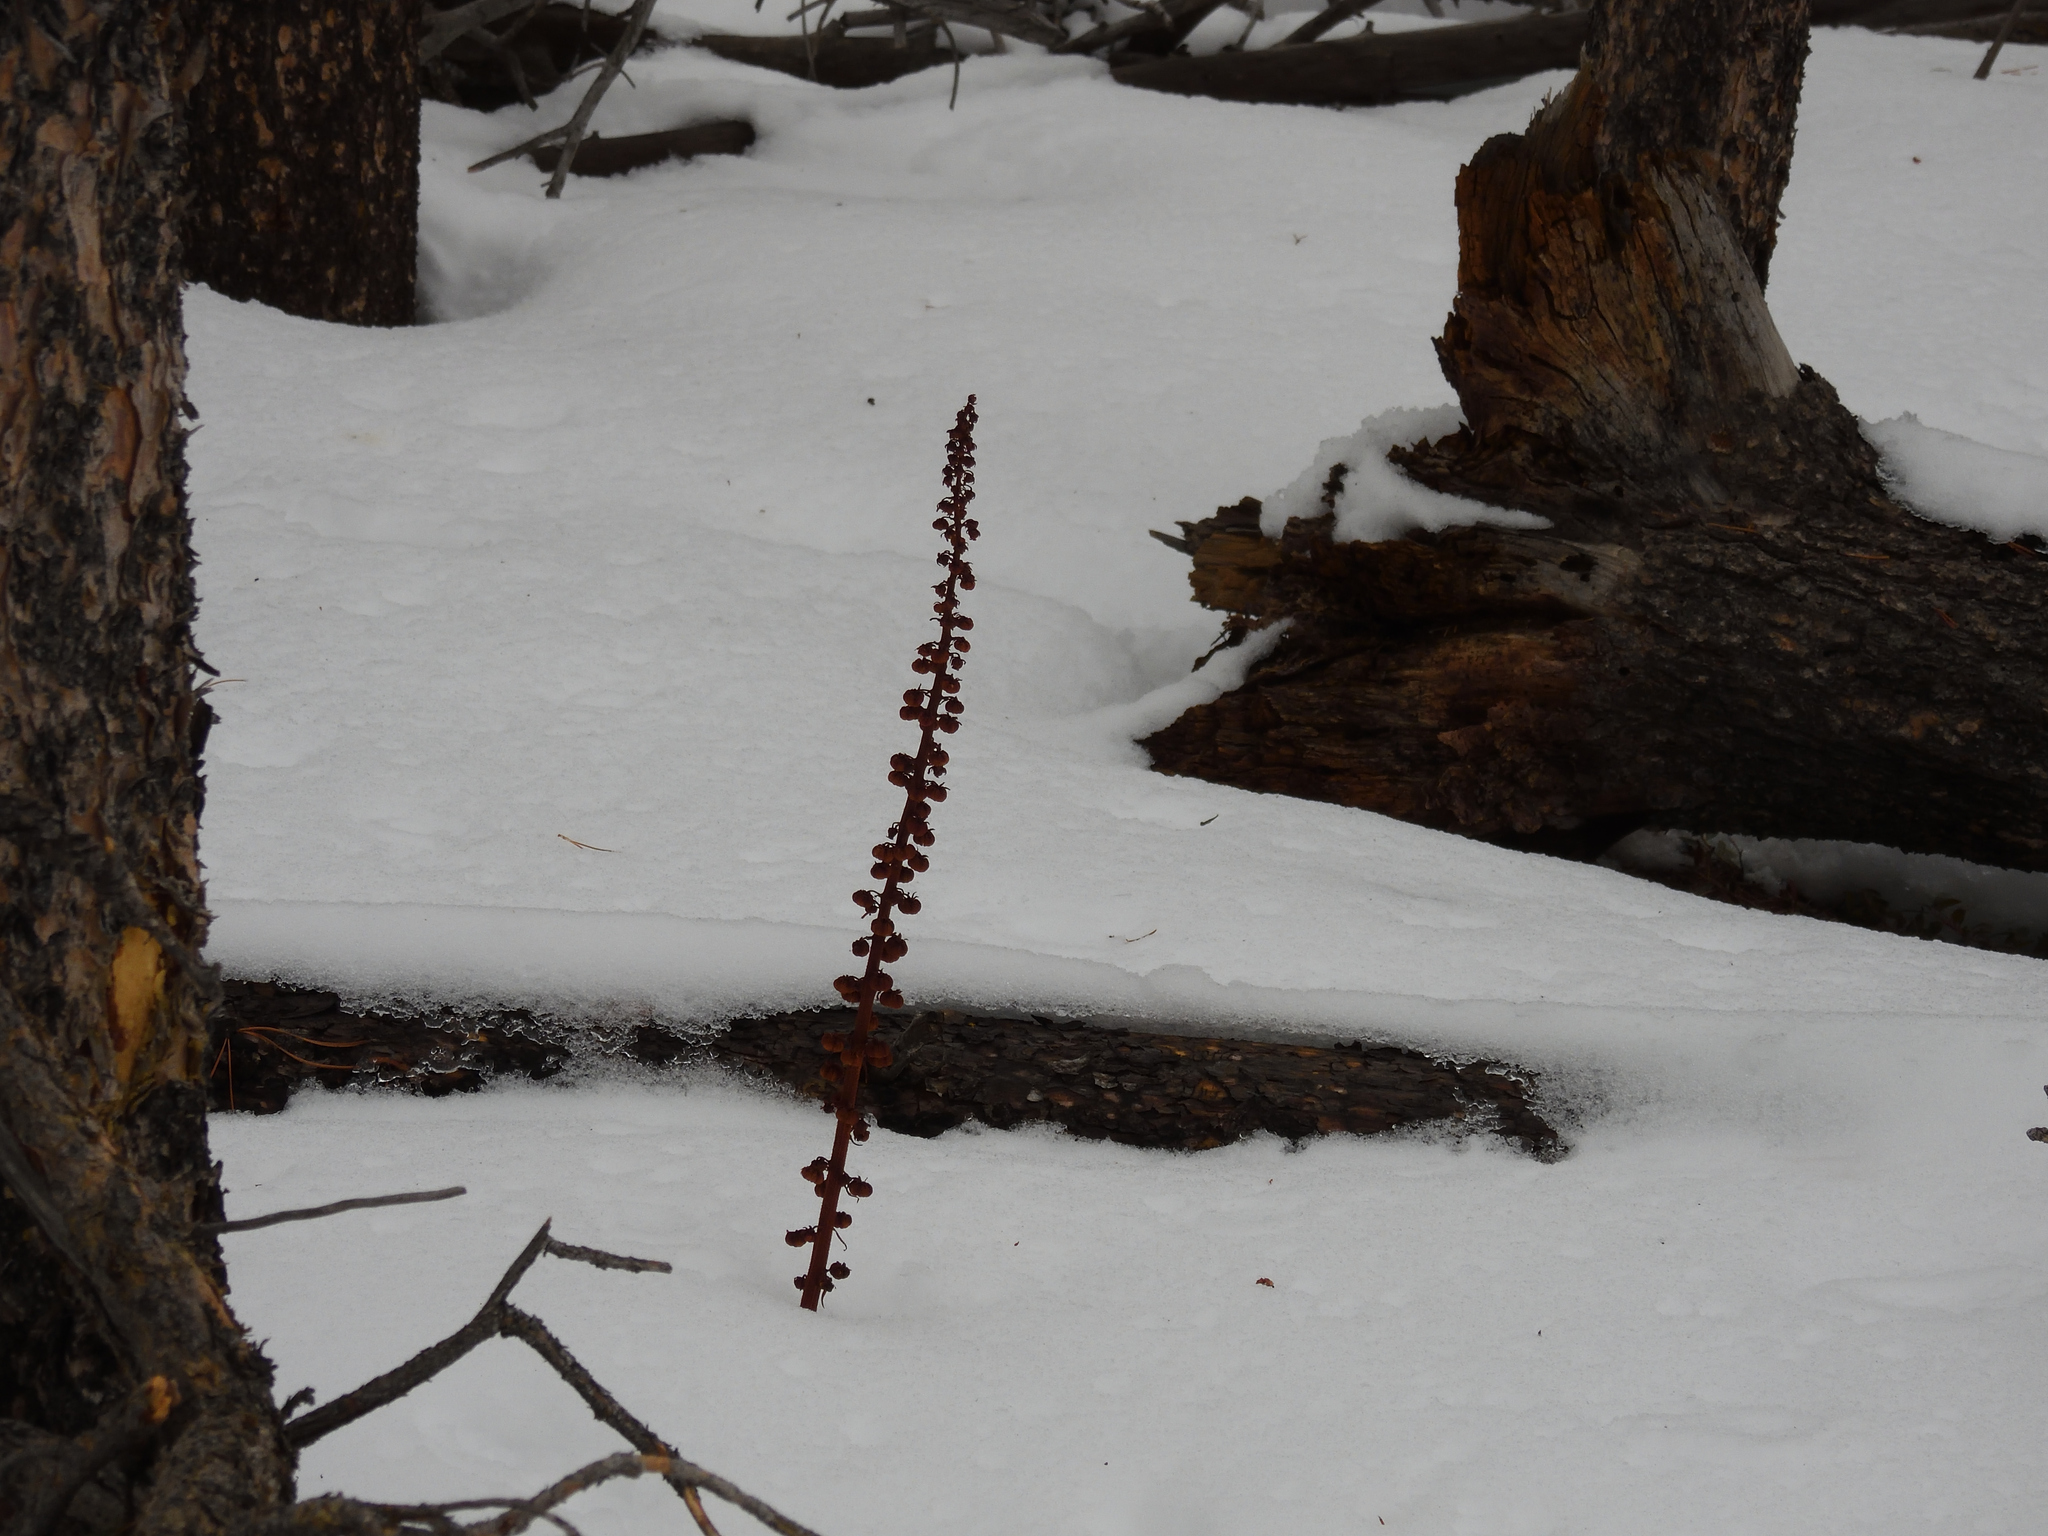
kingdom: Plantae
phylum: Tracheophyta
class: Magnoliopsida
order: Ericales
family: Ericaceae
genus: Pterospora
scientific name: Pterospora andromedea
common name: Giant bird's-nest
